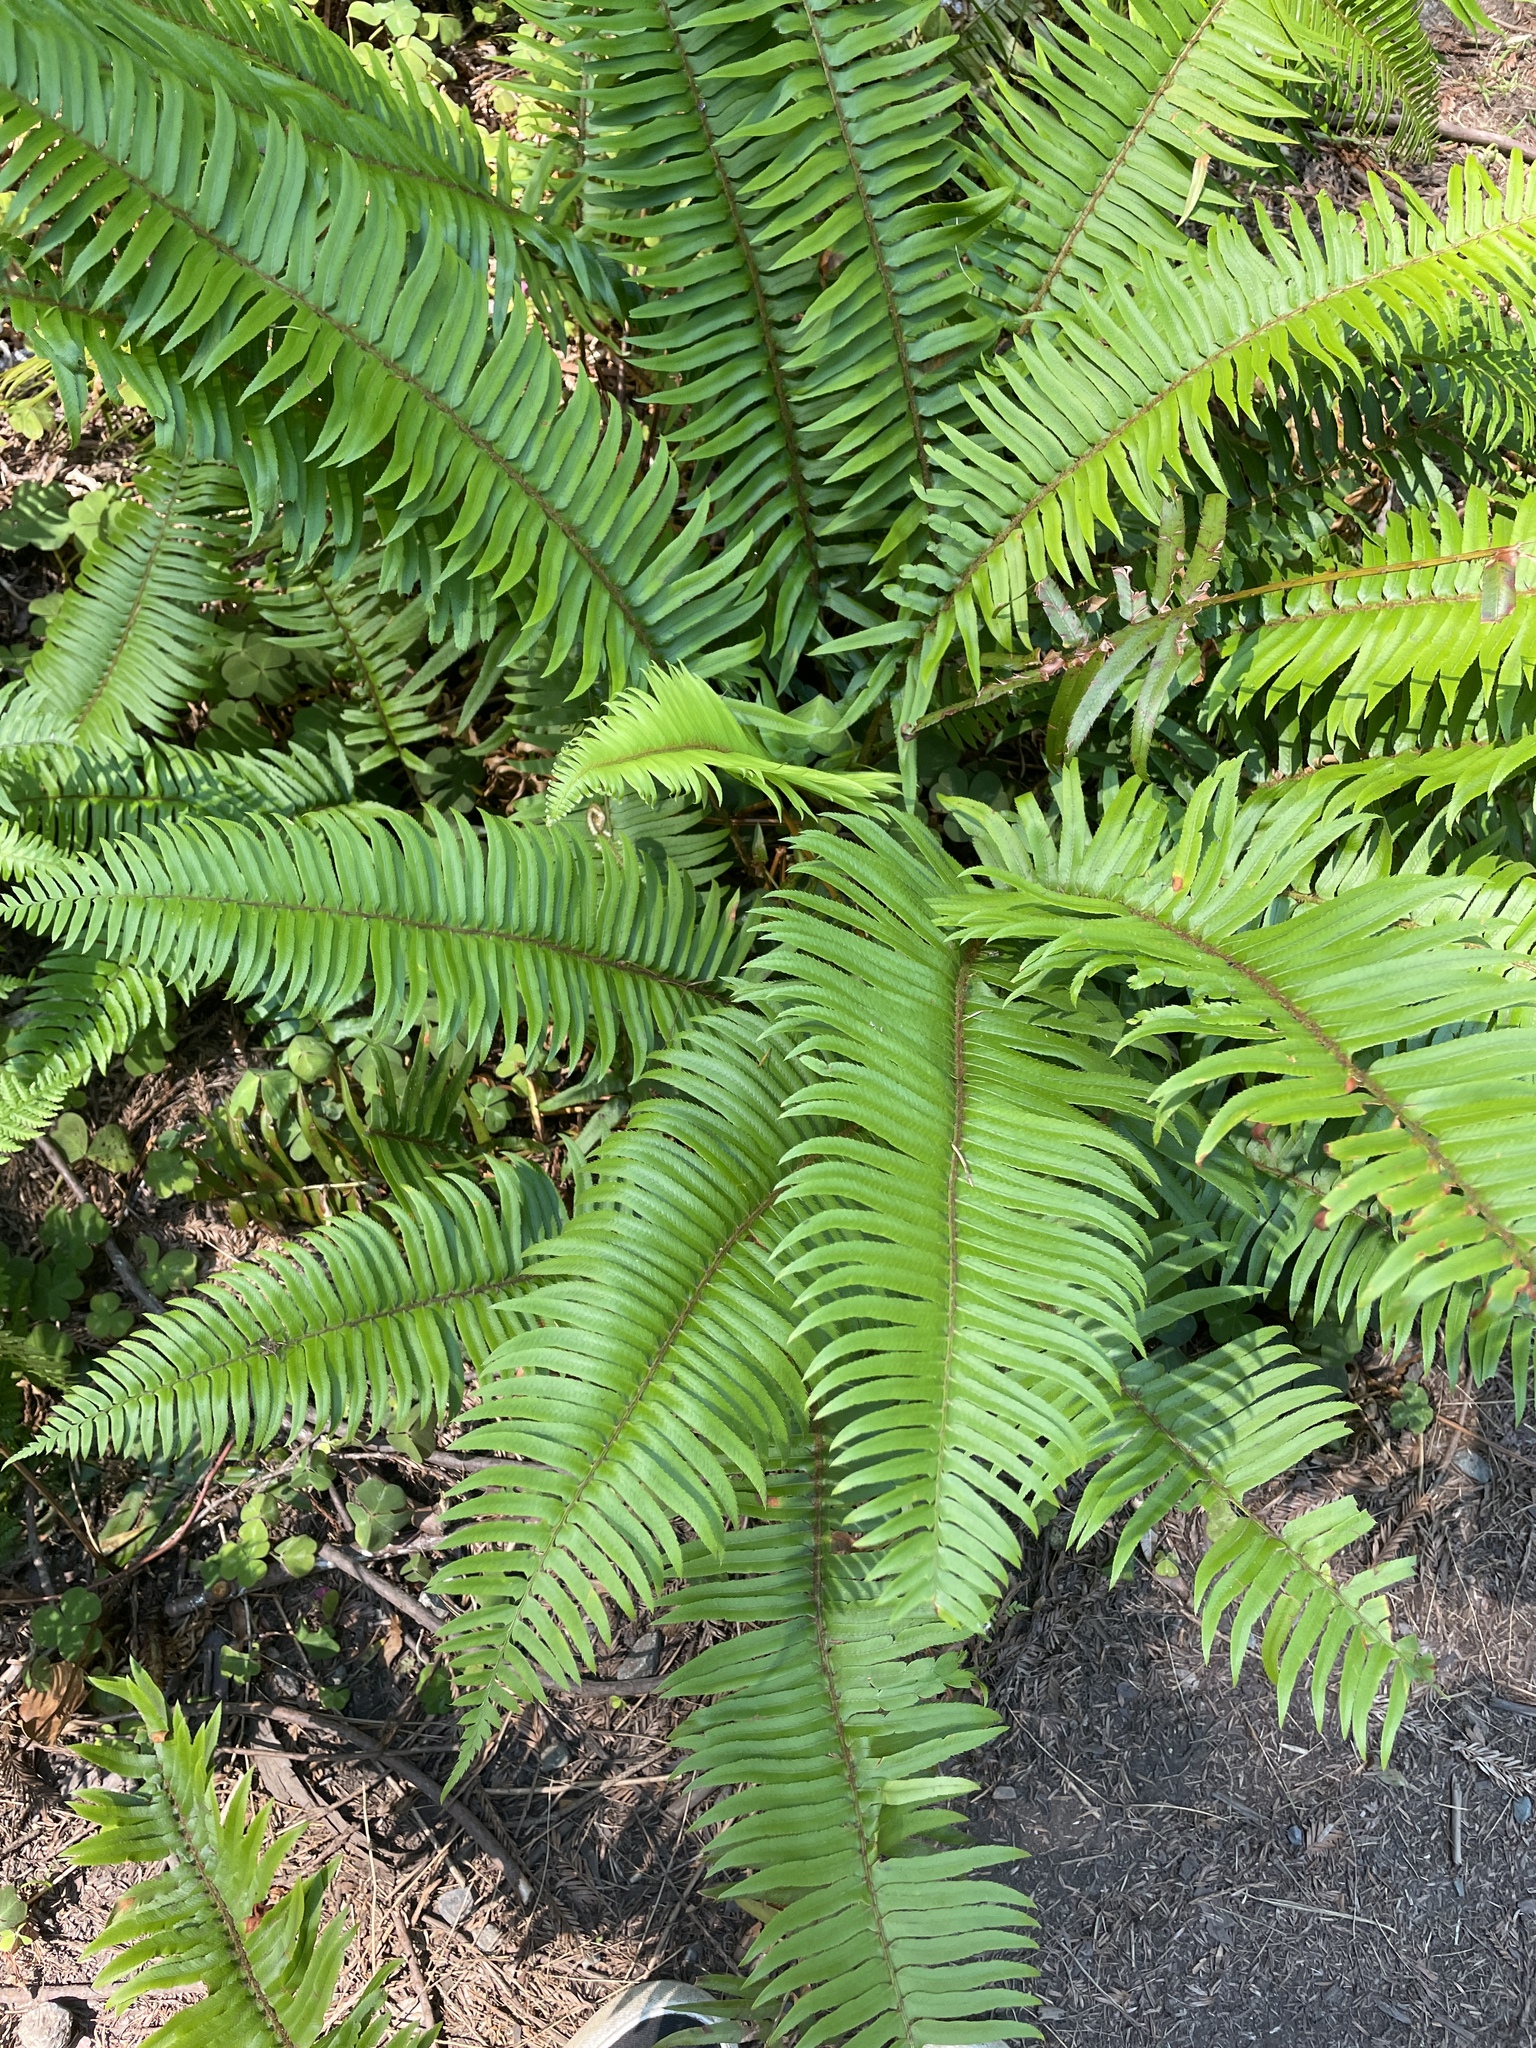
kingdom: Plantae
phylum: Tracheophyta
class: Polypodiopsida
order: Polypodiales
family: Dryopteridaceae
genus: Polystichum
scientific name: Polystichum munitum
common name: Western sword-fern
